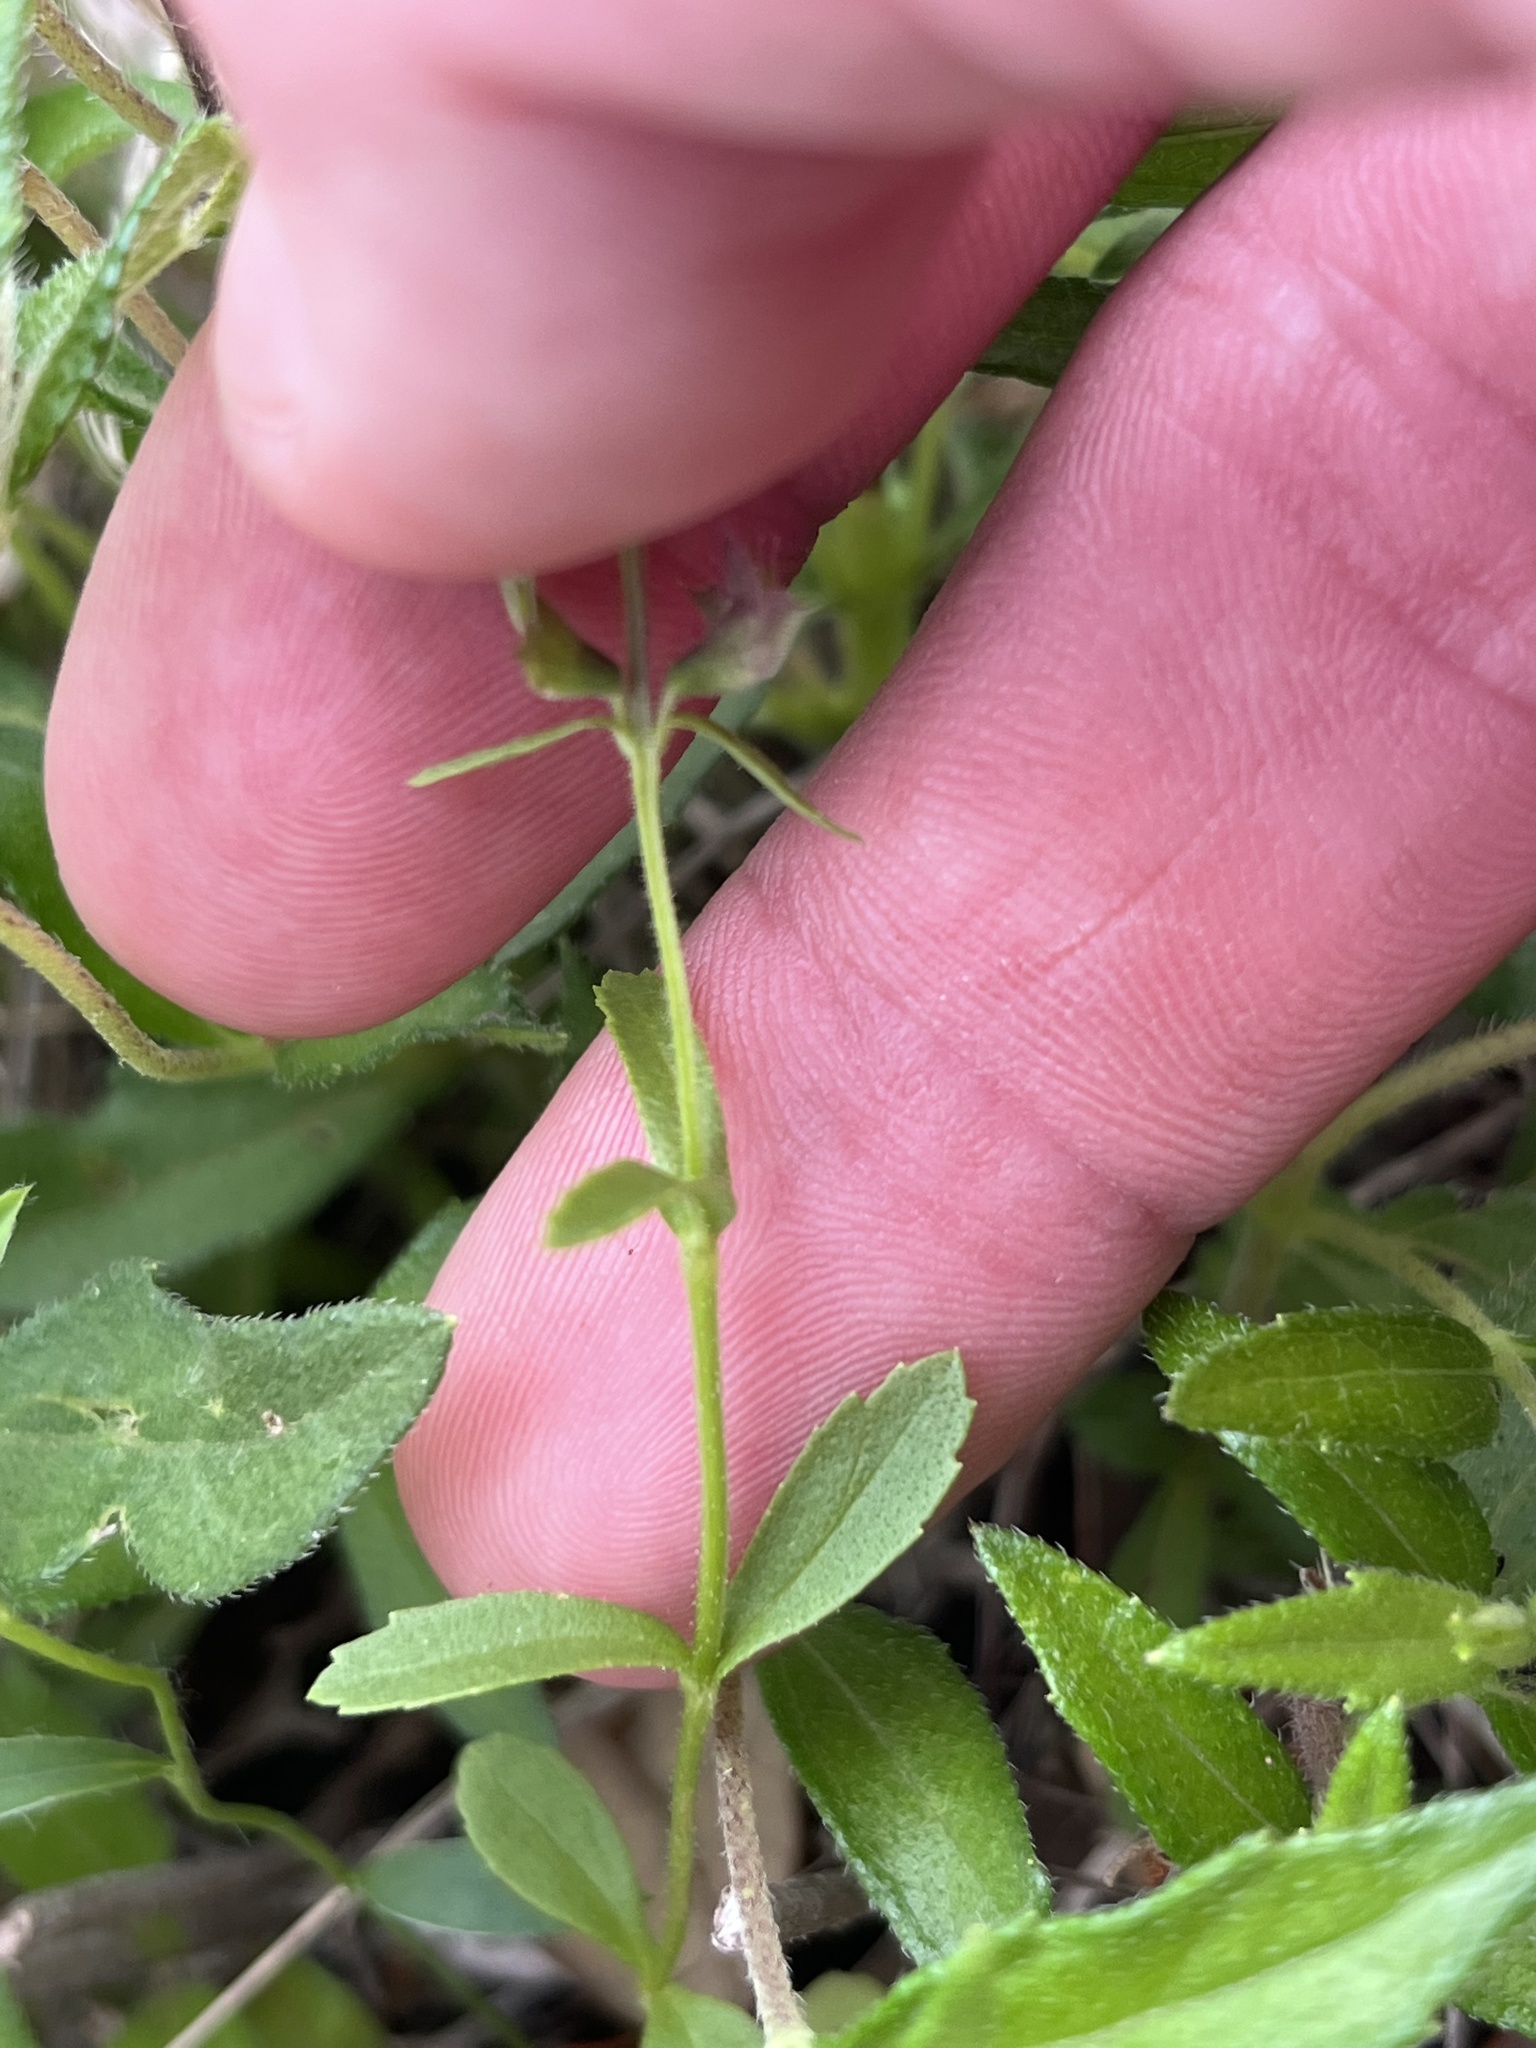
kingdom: Plantae
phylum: Tracheophyta
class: Magnoliopsida
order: Lamiales
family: Lamiaceae
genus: Warnockia
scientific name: Warnockia scutellarioides
